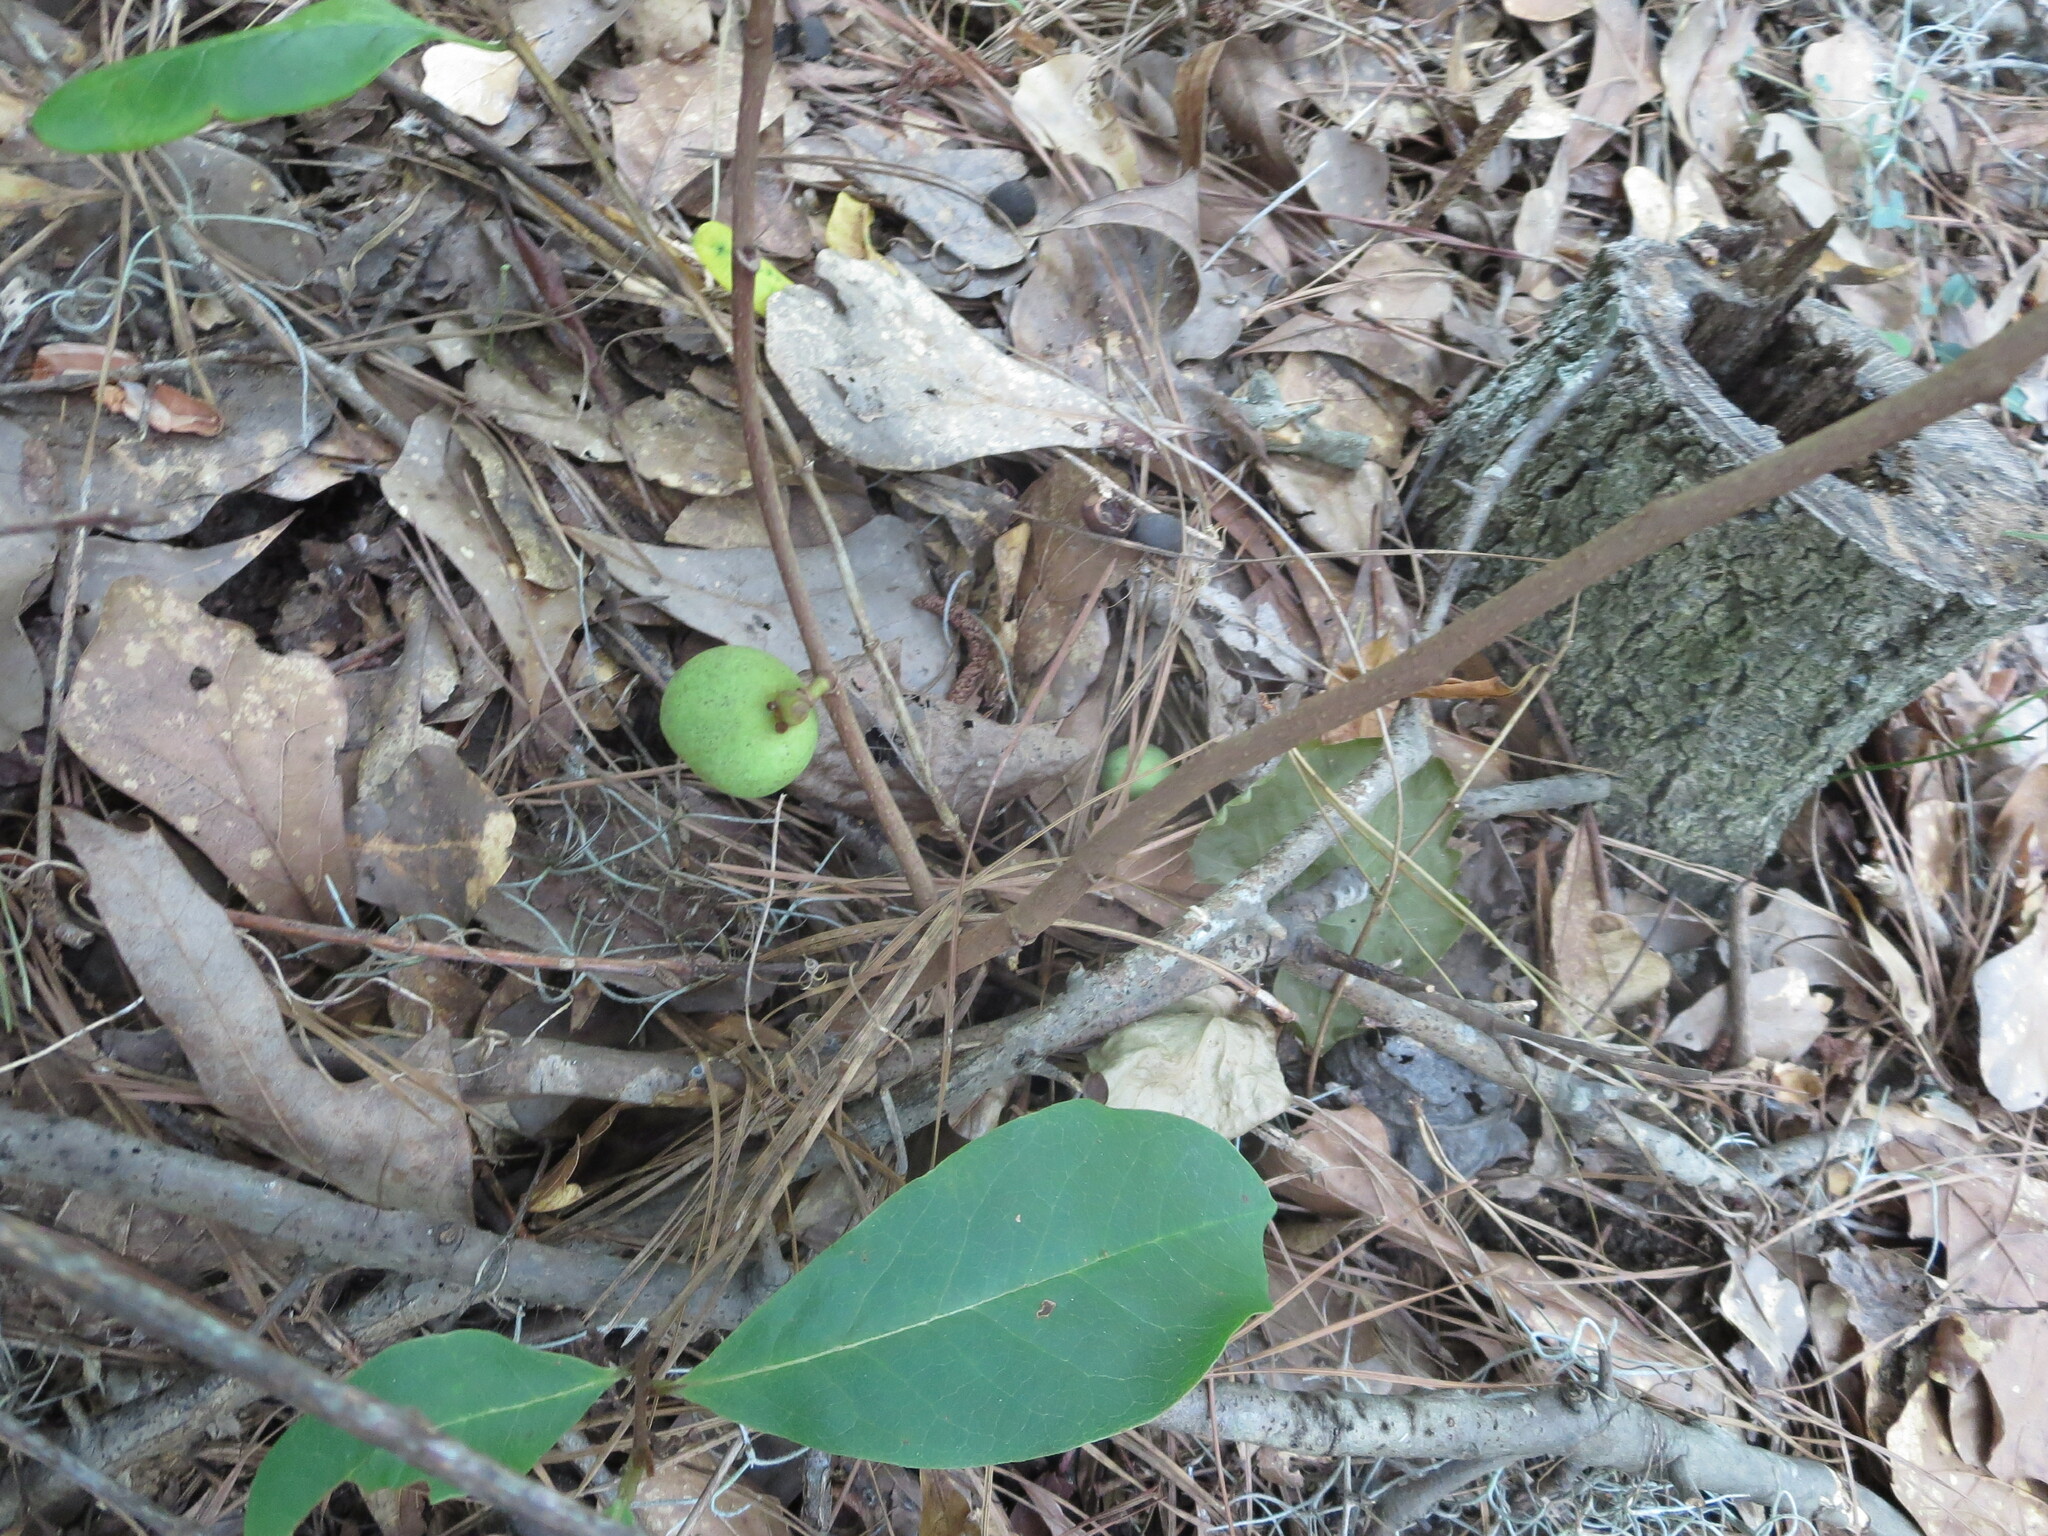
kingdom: Plantae
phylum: Tracheophyta
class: Magnoliopsida
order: Magnoliales
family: Annonaceae
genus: Asimina
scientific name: Asimina parviflora
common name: Dwarf pawpaw
